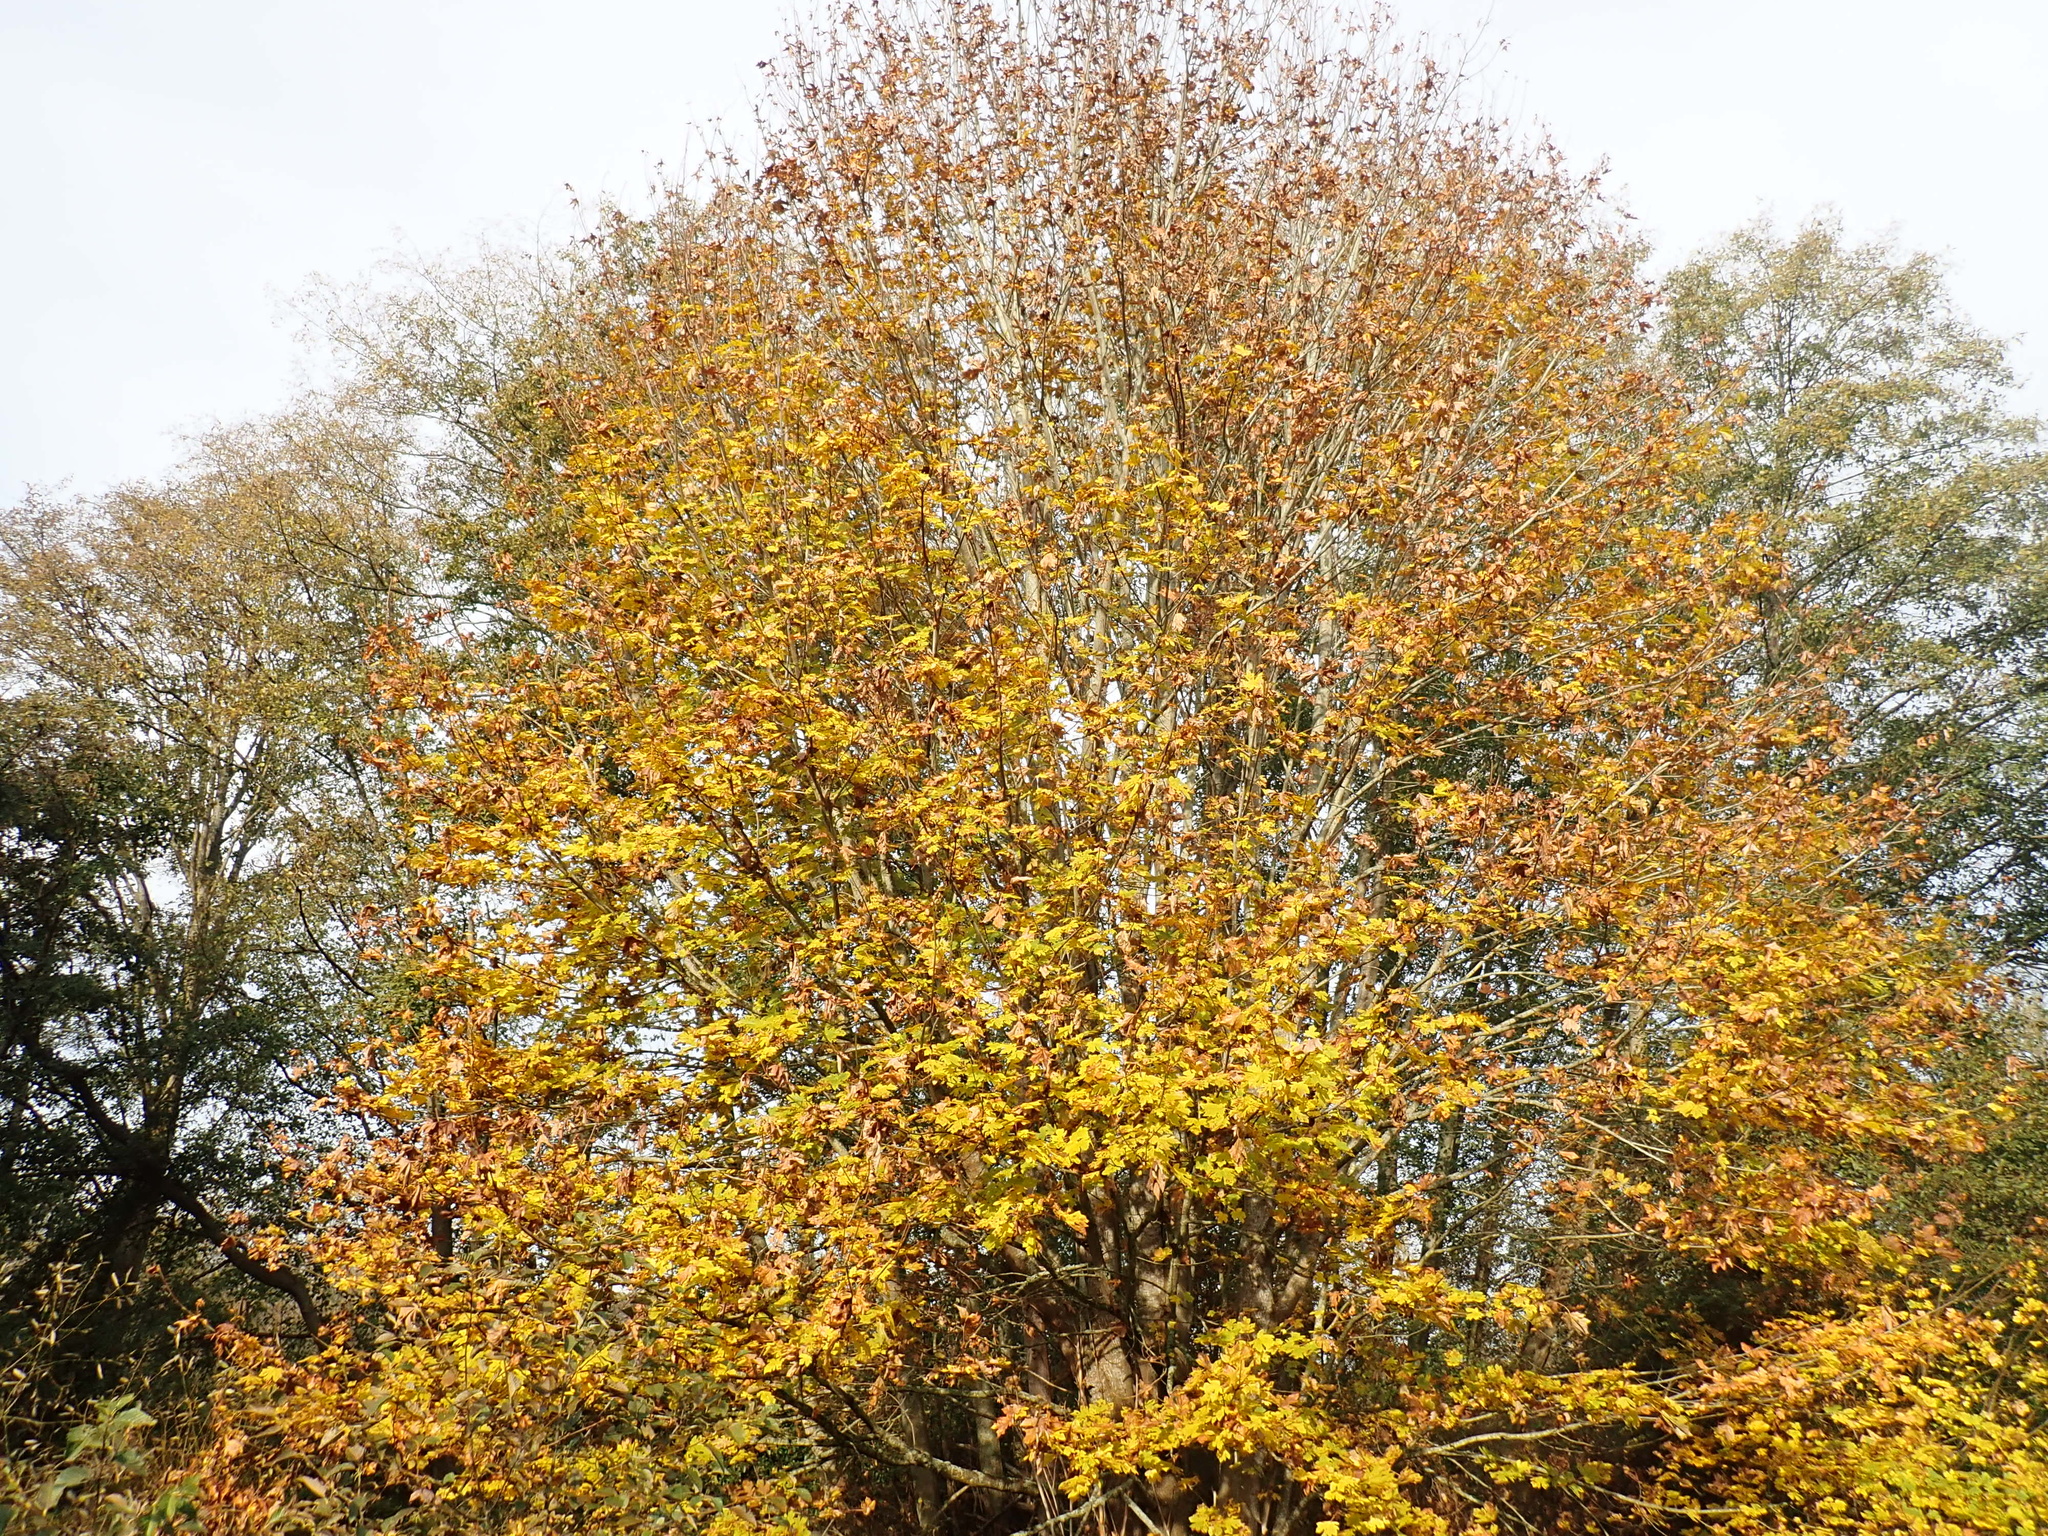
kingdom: Plantae
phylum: Tracheophyta
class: Magnoliopsida
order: Sapindales
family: Sapindaceae
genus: Acer
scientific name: Acer macrophyllum
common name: Oregon maple
